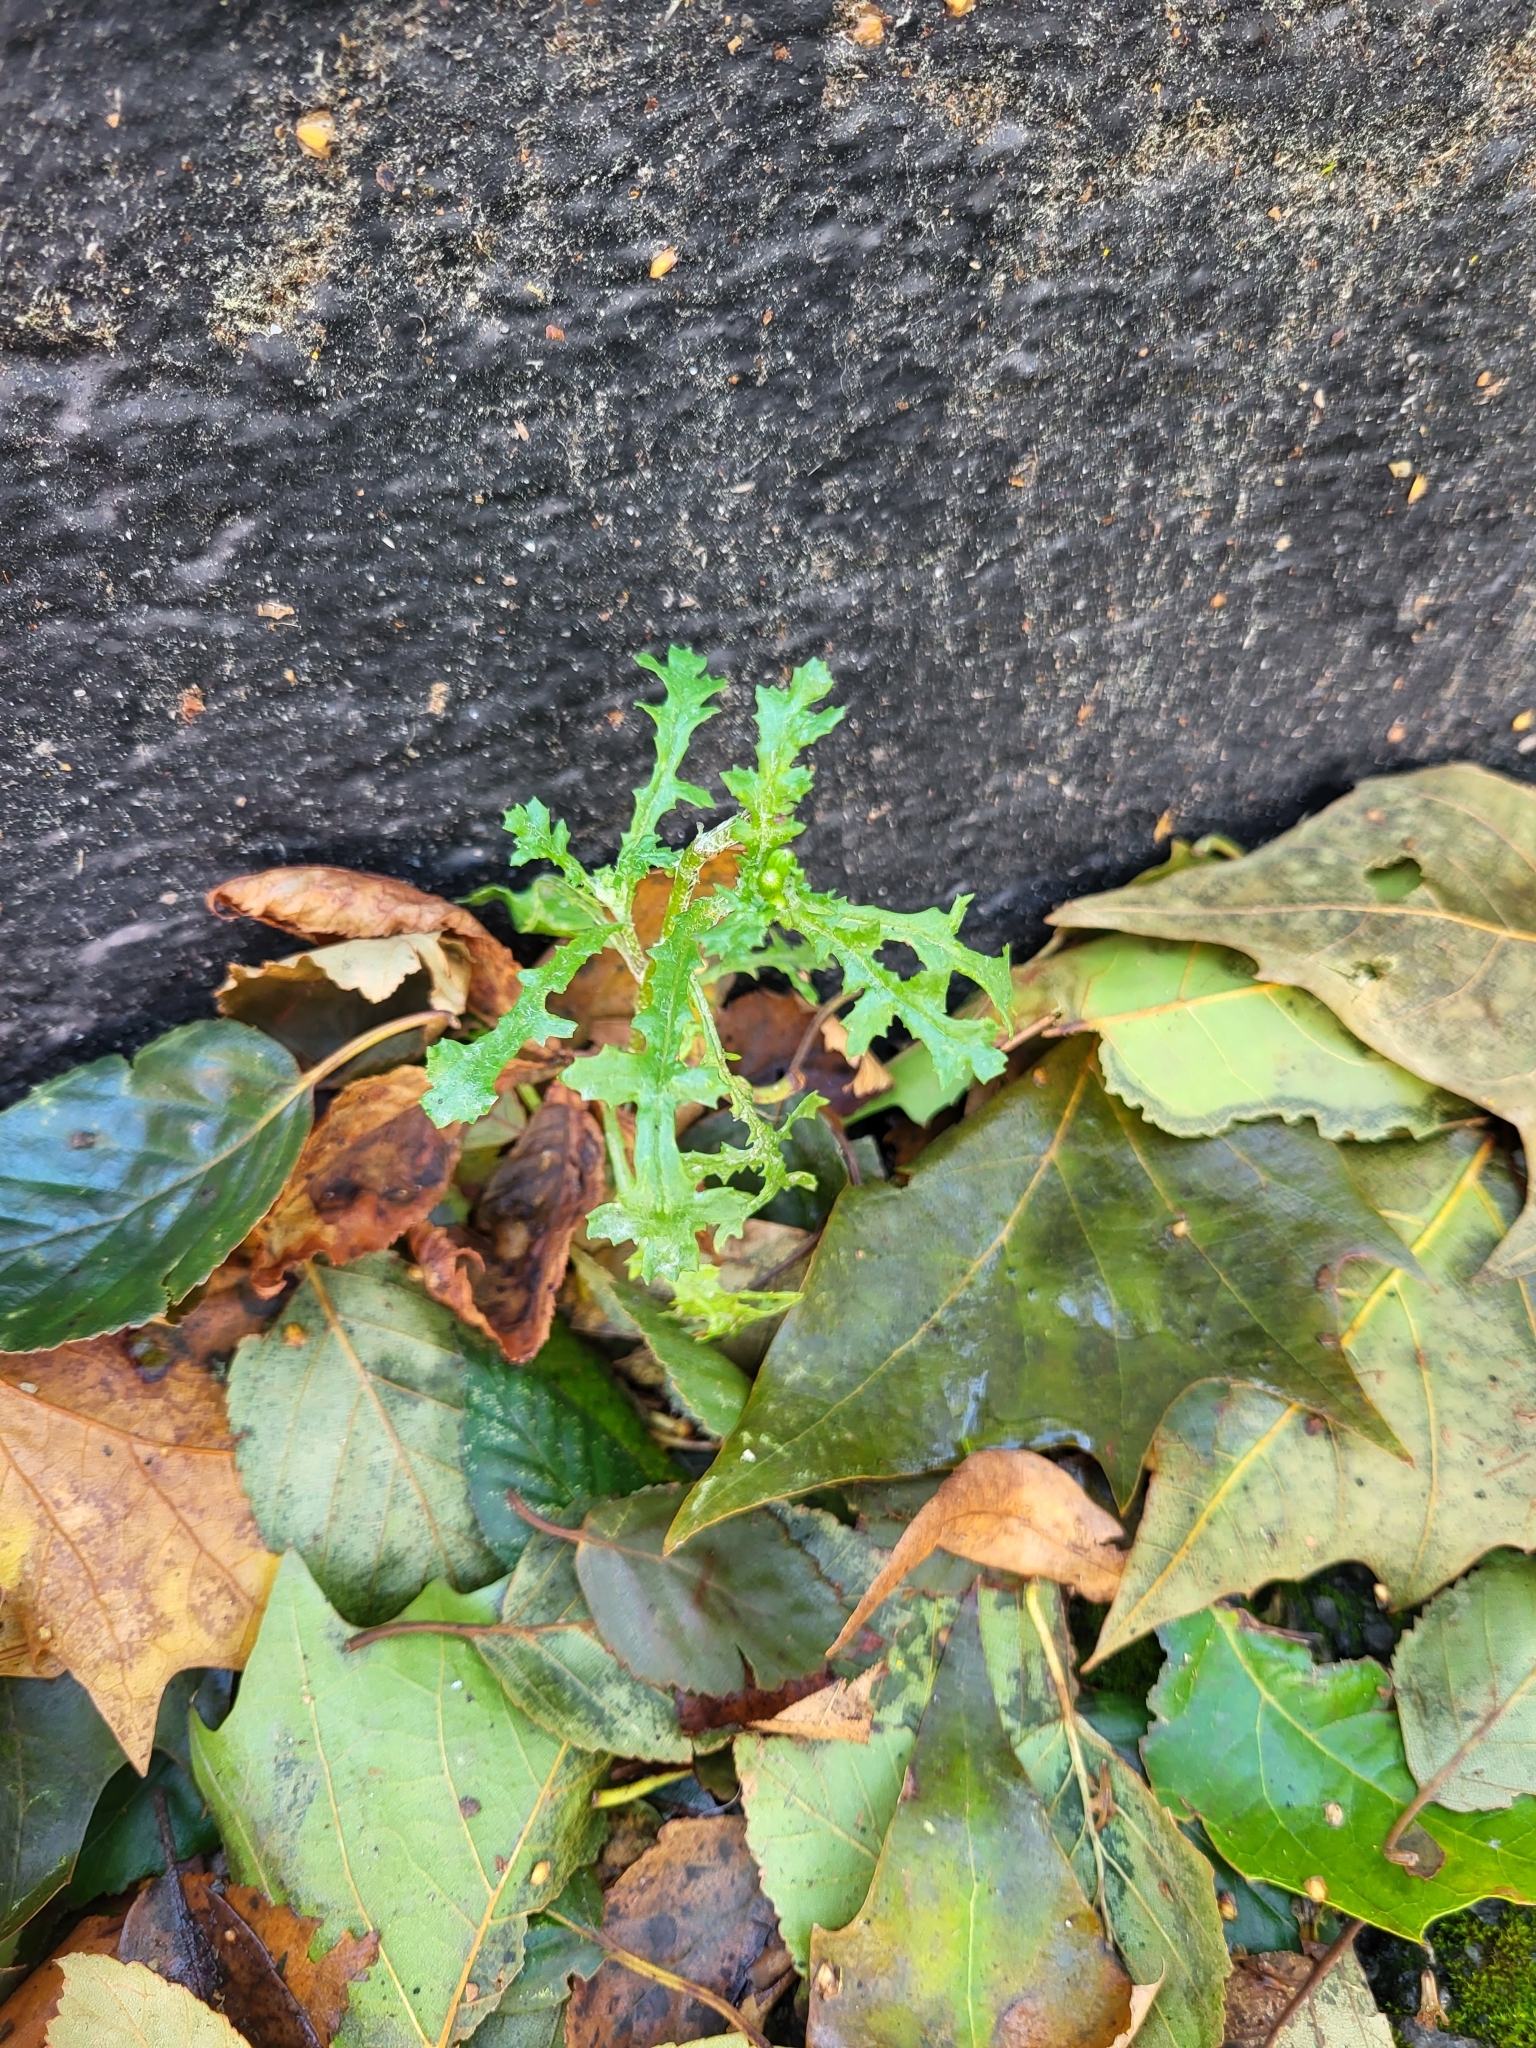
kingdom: Plantae
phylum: Tracheophyta
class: Magnoliopsida
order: Asterales
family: Asteraceae
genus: Senecio
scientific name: Senecio vulgaris
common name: Old-man-in-the-spring
